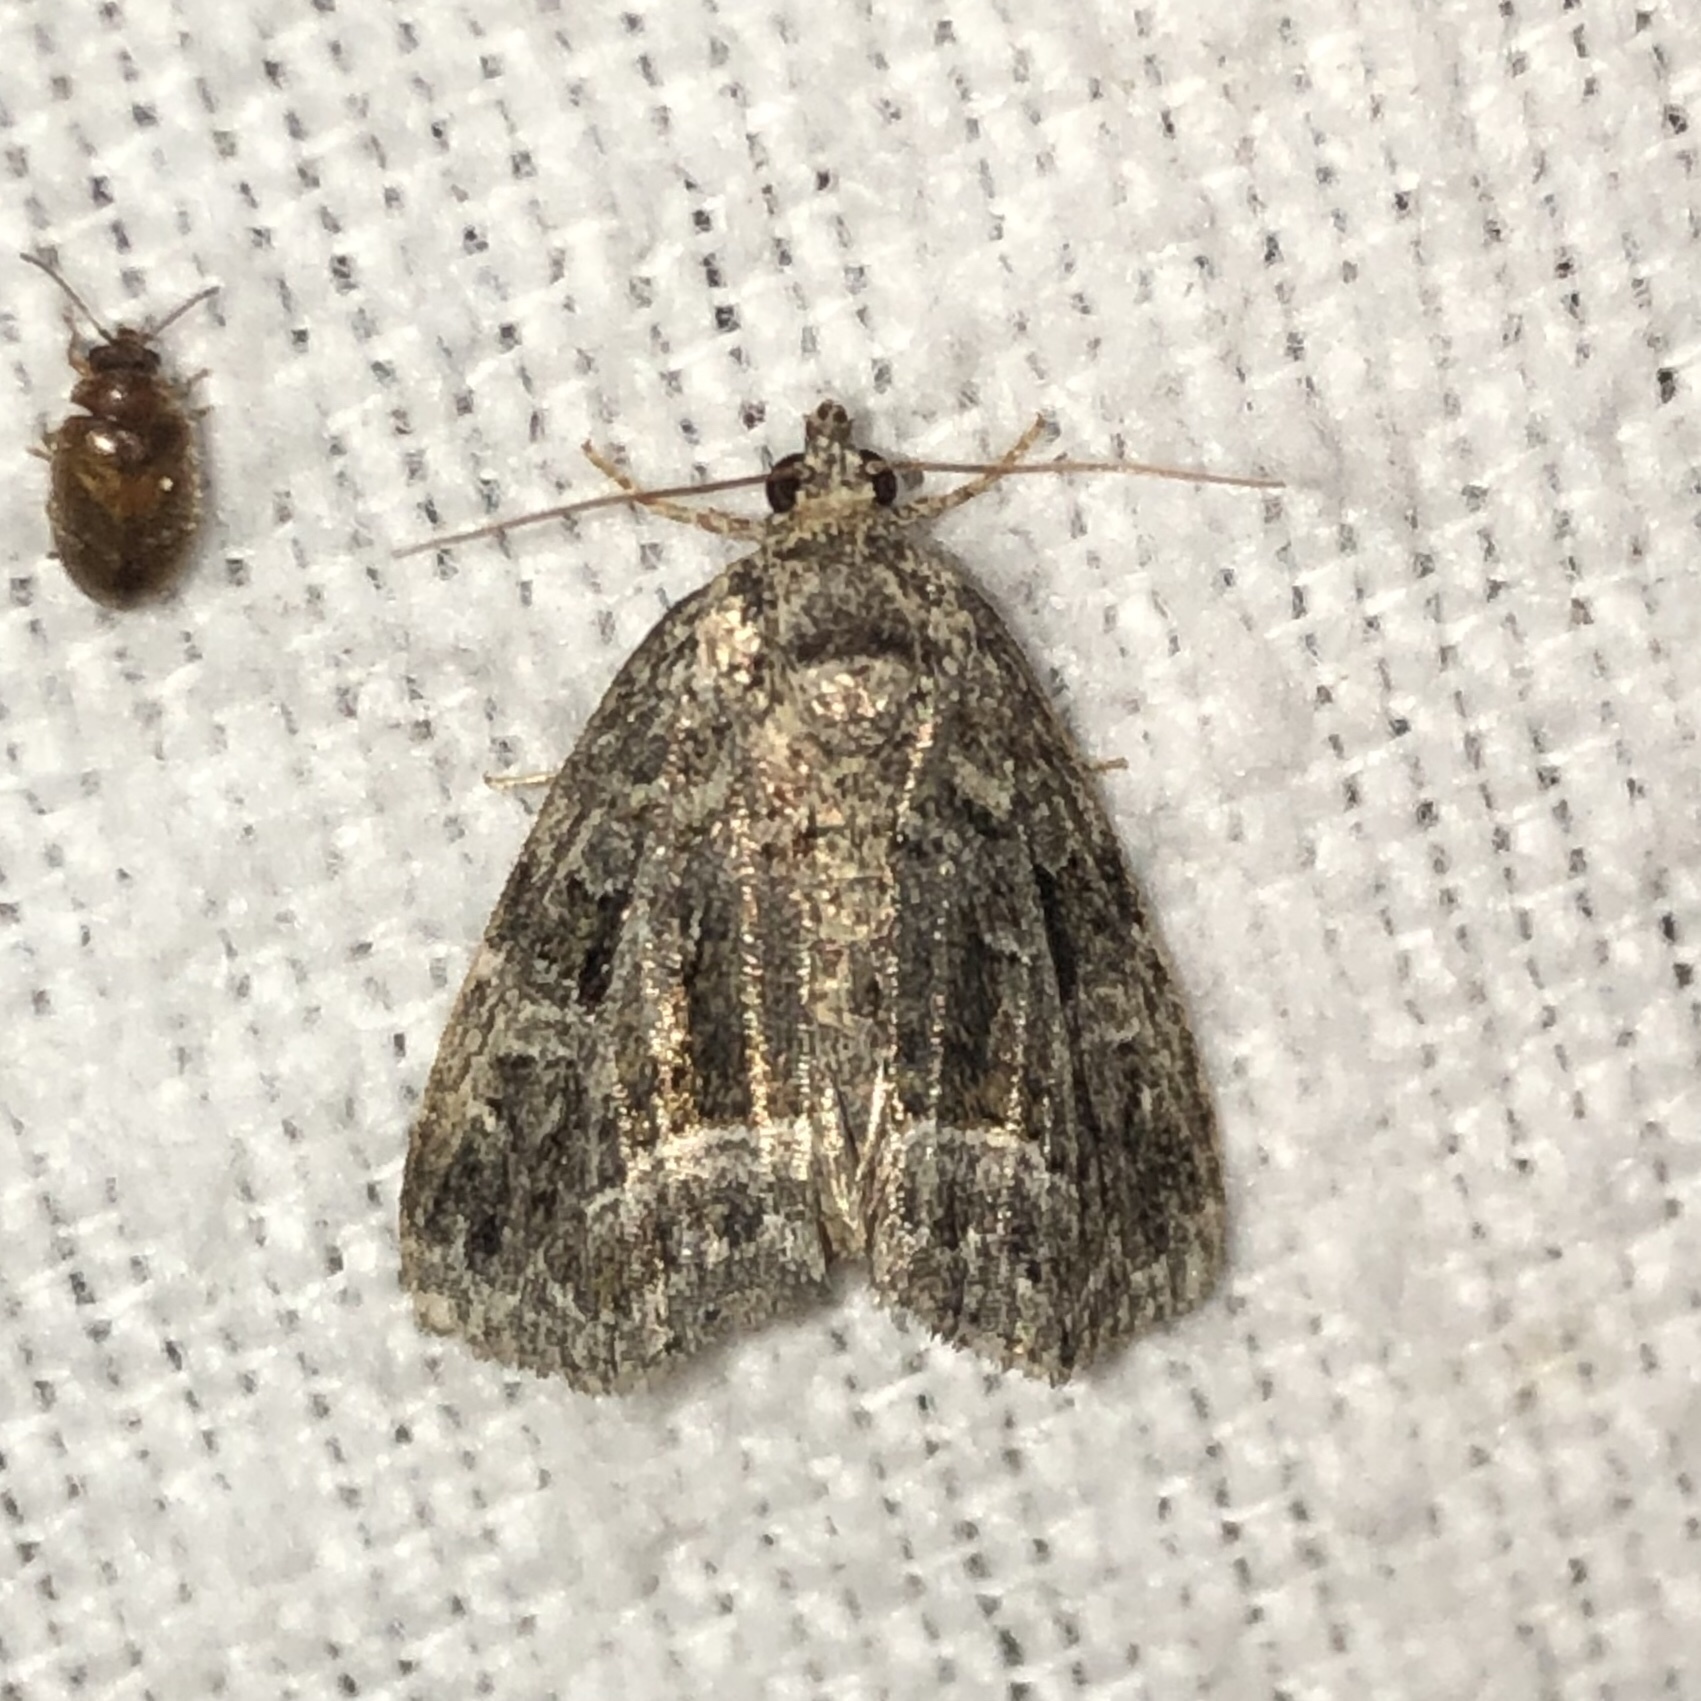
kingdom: Animalia
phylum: Arthropoda
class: Insecta
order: Lepidoptera
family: Noctuidae
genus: Protodeltote
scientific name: Protodeltote muscosula
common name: Large mossy glyph
